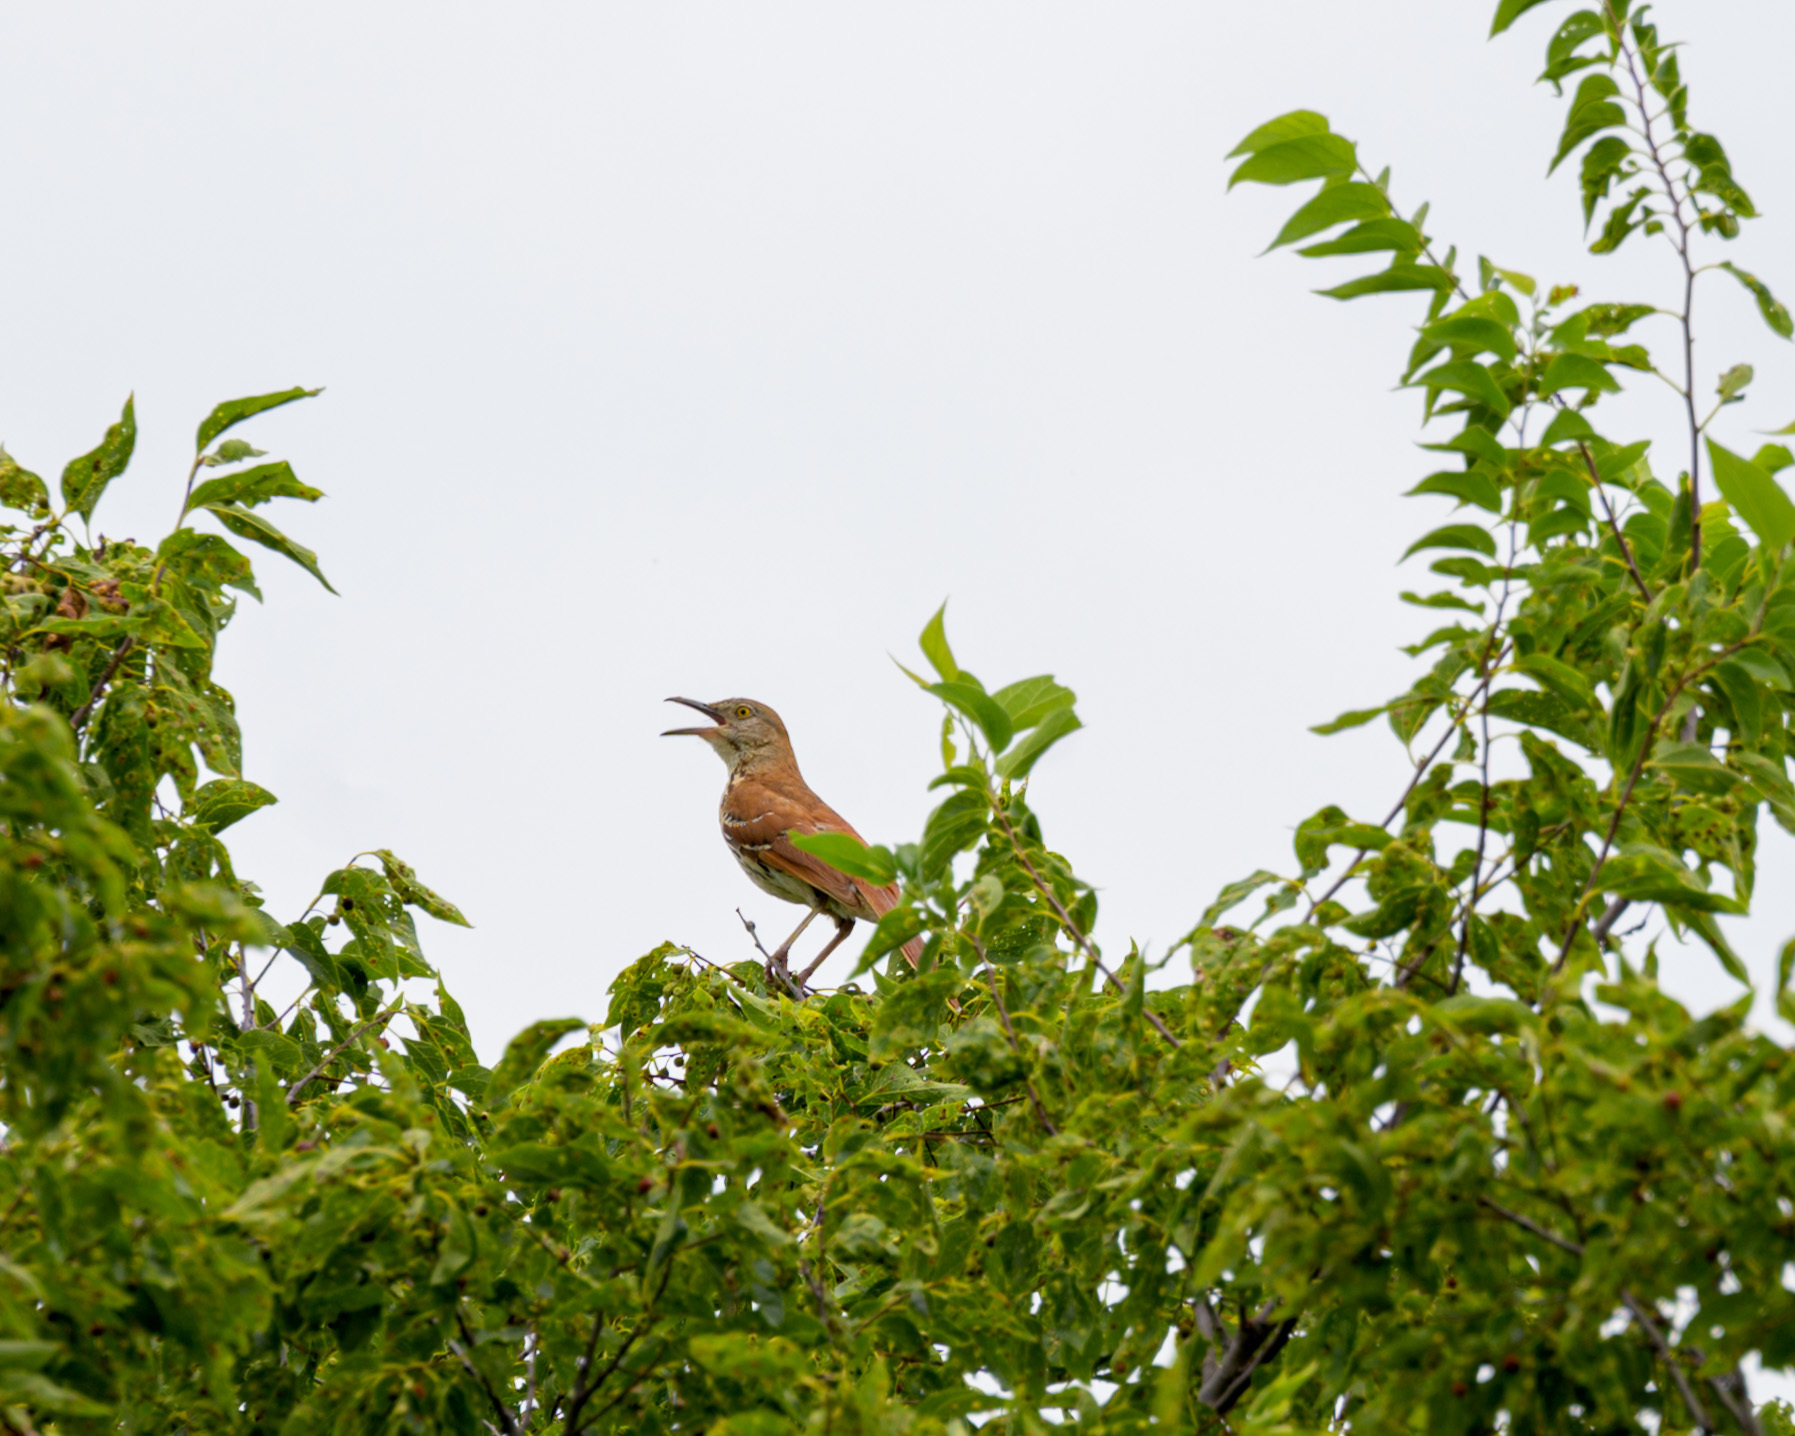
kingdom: Animalia
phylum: Chordata
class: Aves
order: Passeriformes
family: Mimidae
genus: Toxostoma
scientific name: Toxostoma rufum
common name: Brown thrasher
